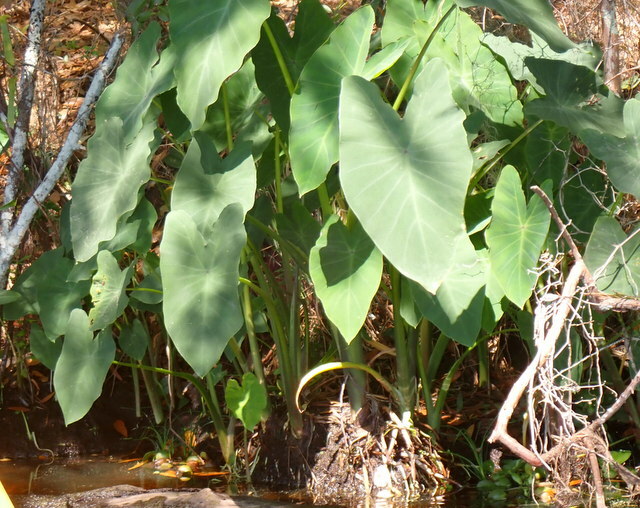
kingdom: Plantae
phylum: Tracheophyta
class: Liliopsida
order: Alismatales
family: Araceae
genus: Colocasia
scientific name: Colocasia esculenta
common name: Taro
